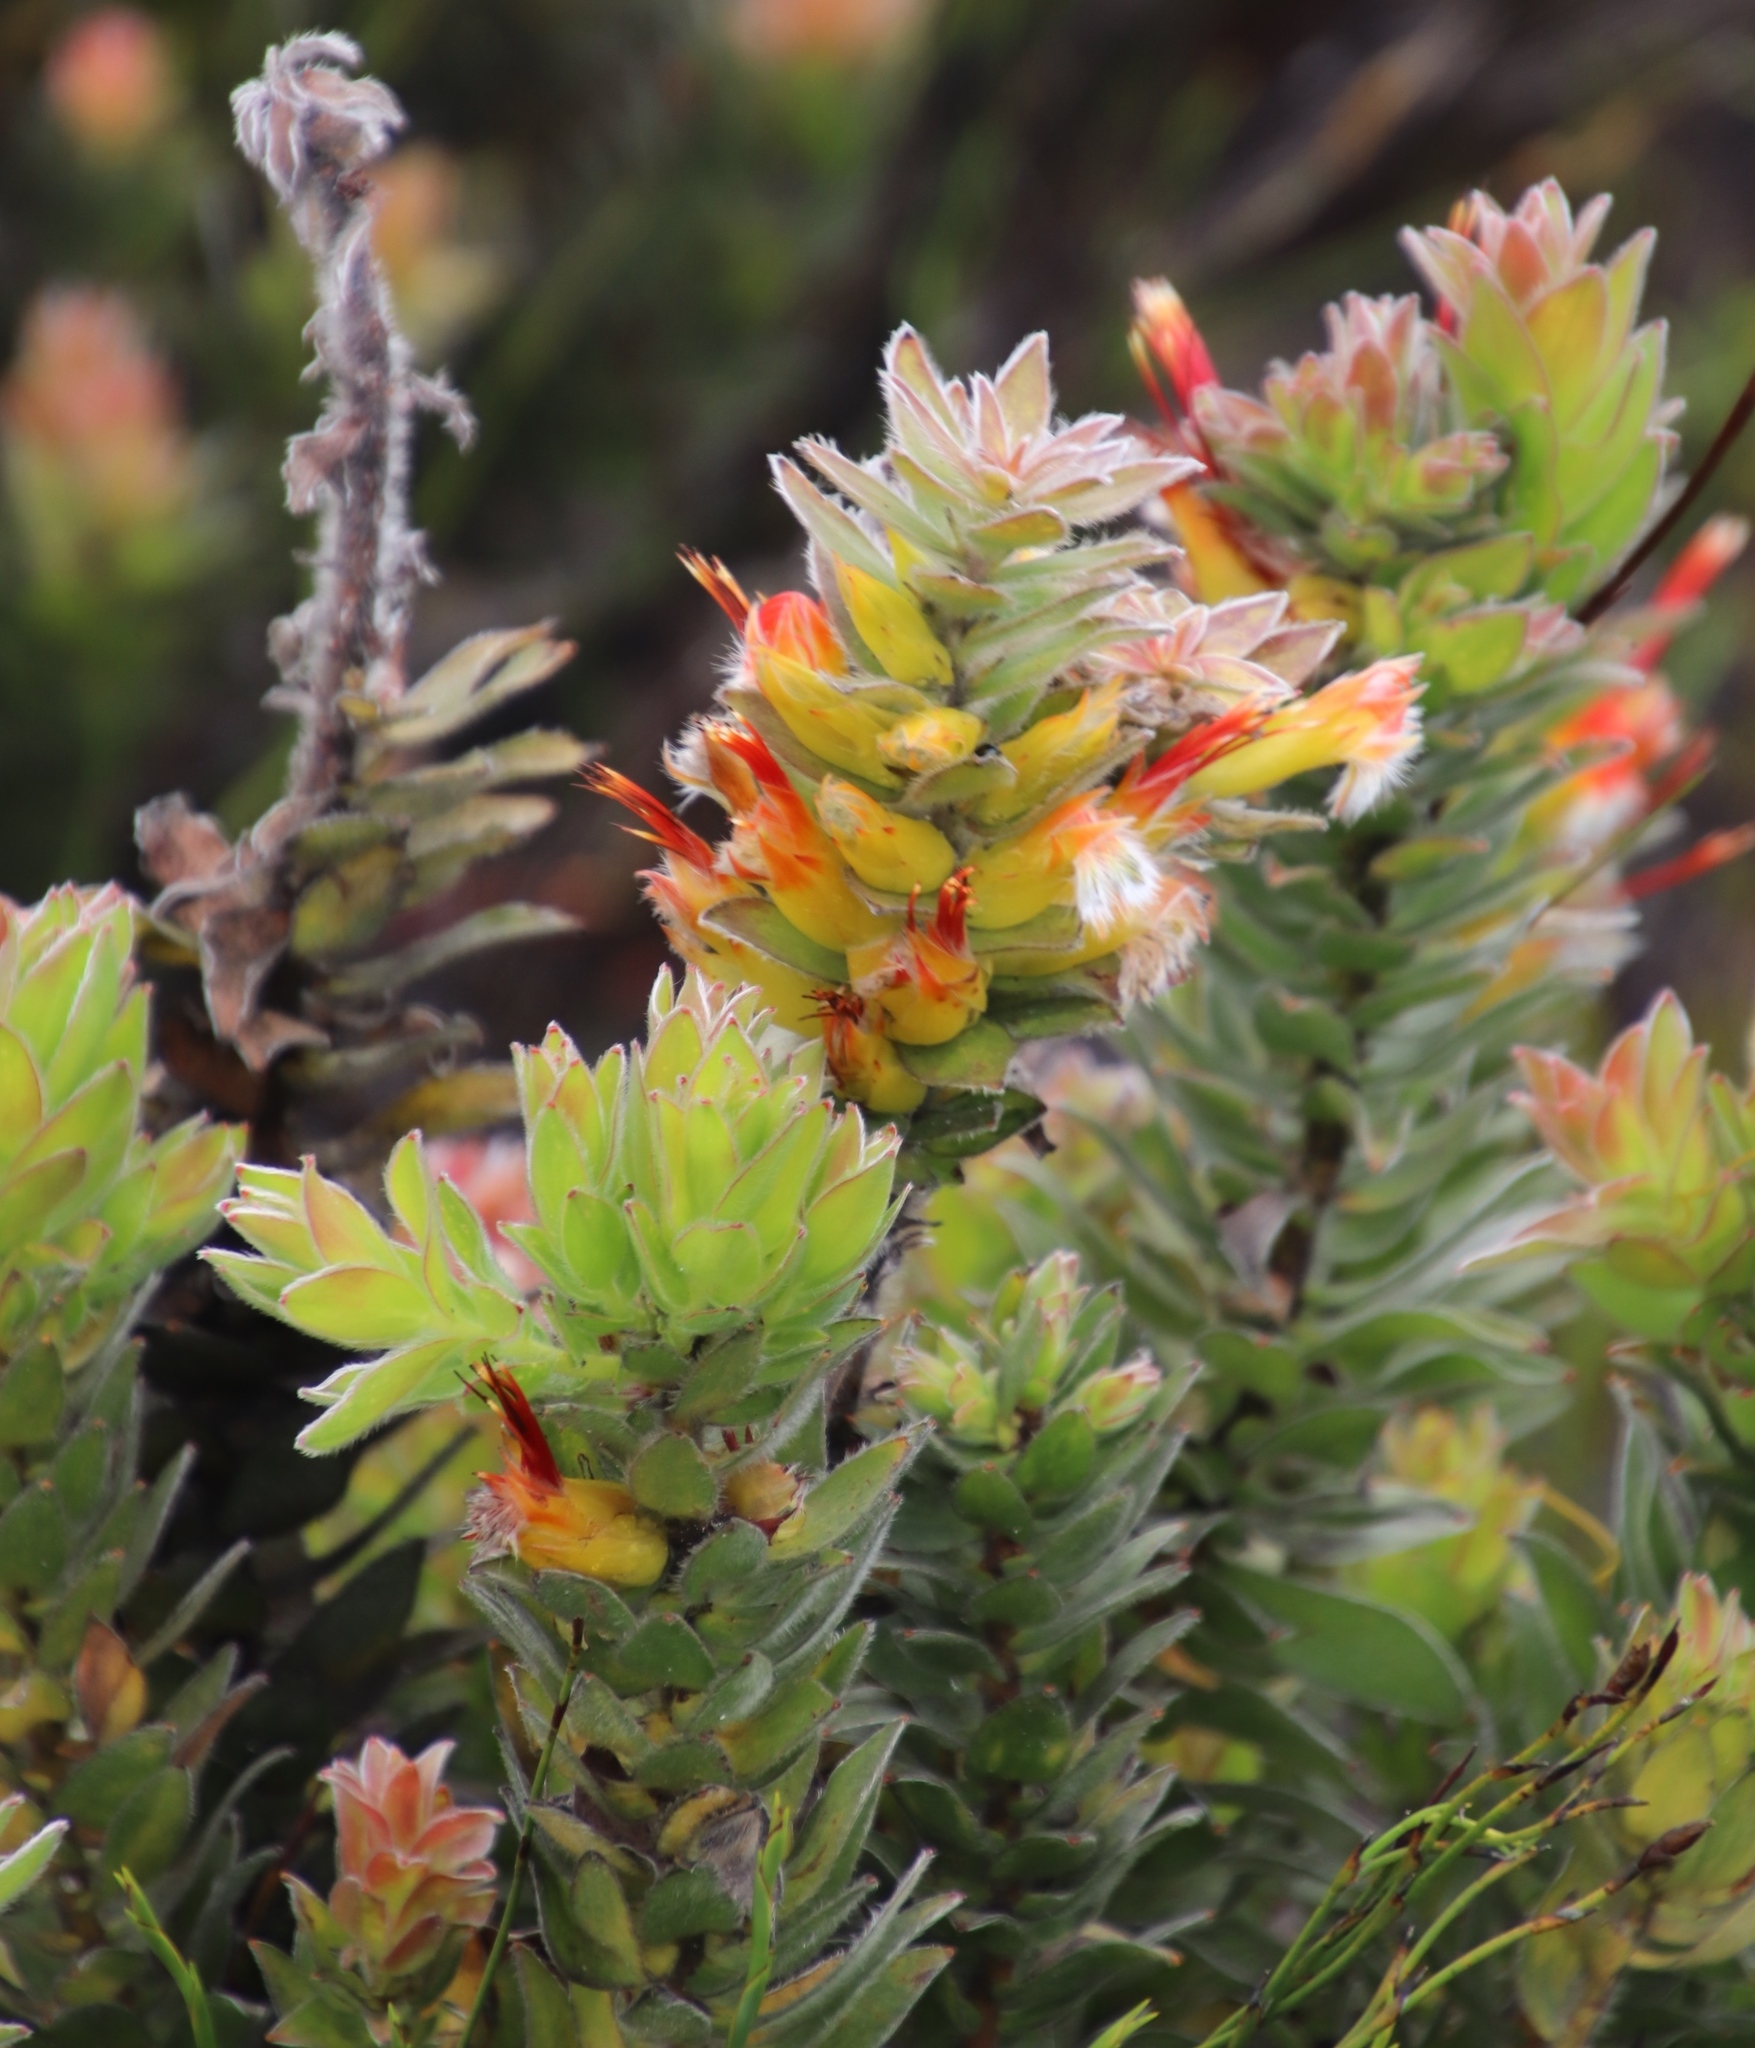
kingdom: Plantae
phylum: Tracheophyta
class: Magnoliopsida
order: Proteales
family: Proteaceae
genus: Mimetes
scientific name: Mimetes hirtus
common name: Marsh pagoda
